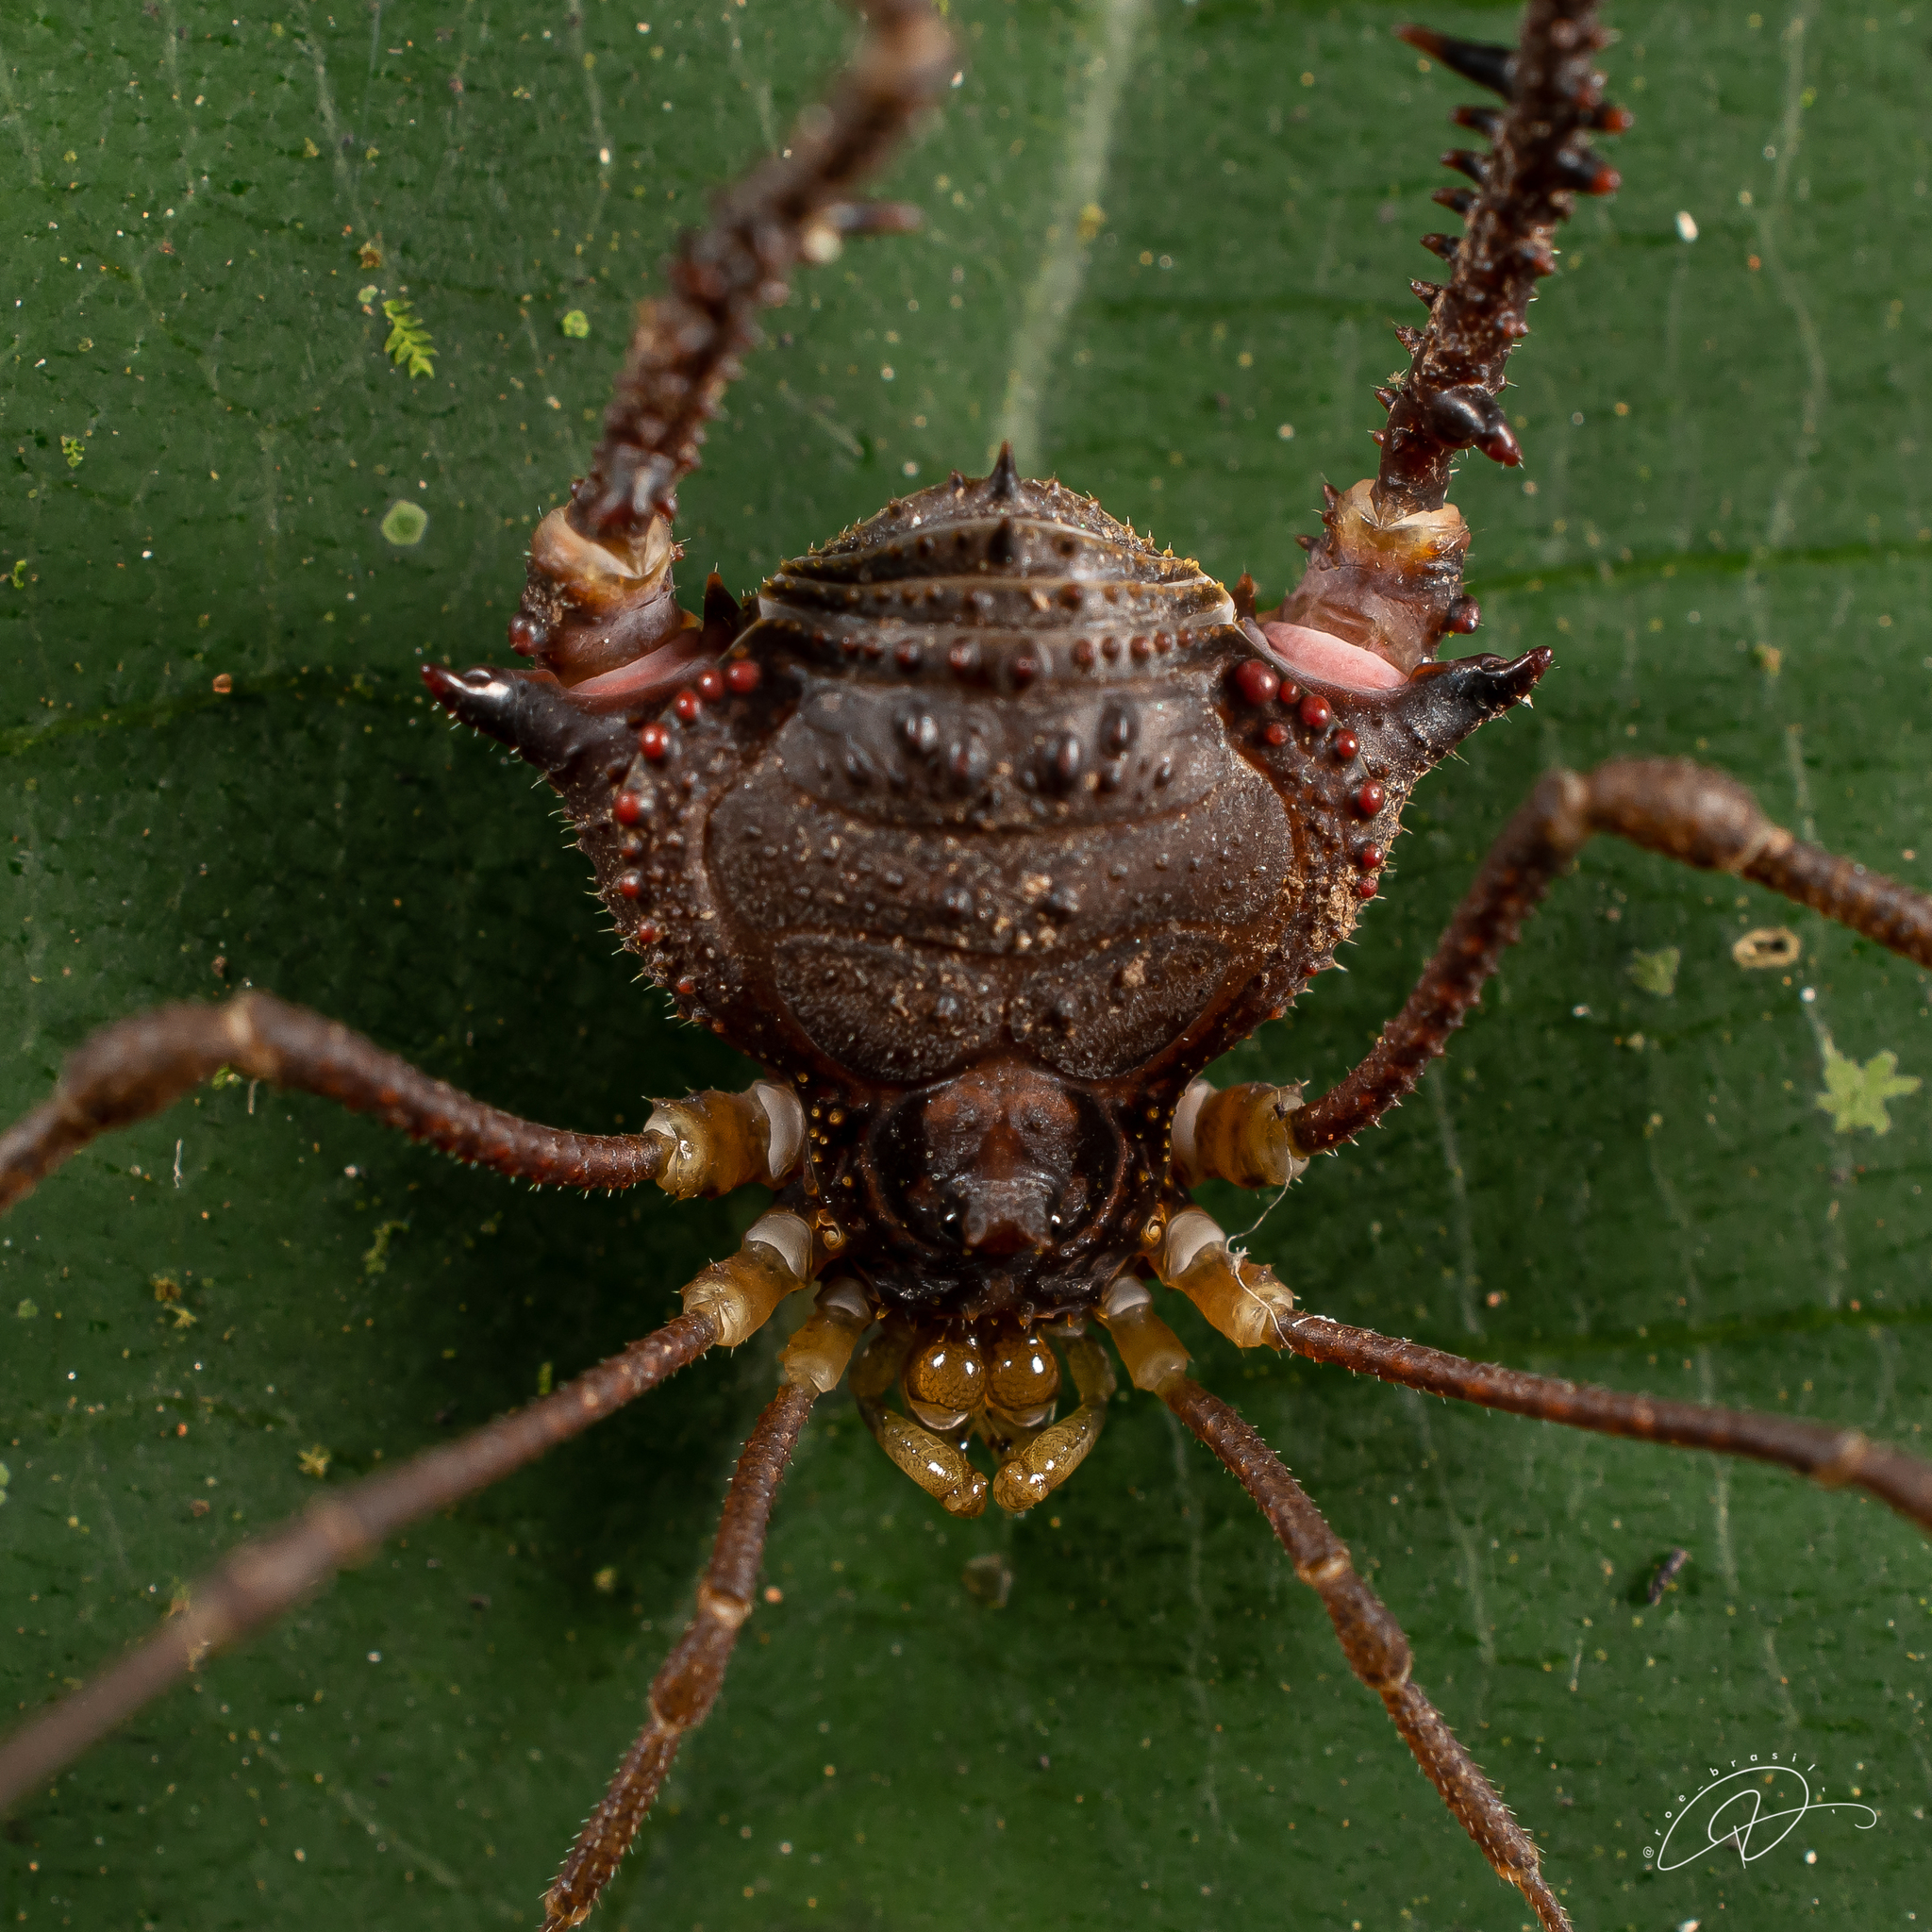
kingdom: Animalia
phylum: Arthropoda
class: Arachnida
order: Opiliones
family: Gonyleptidae
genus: Mischonyx
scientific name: Mischonyx squalidus
